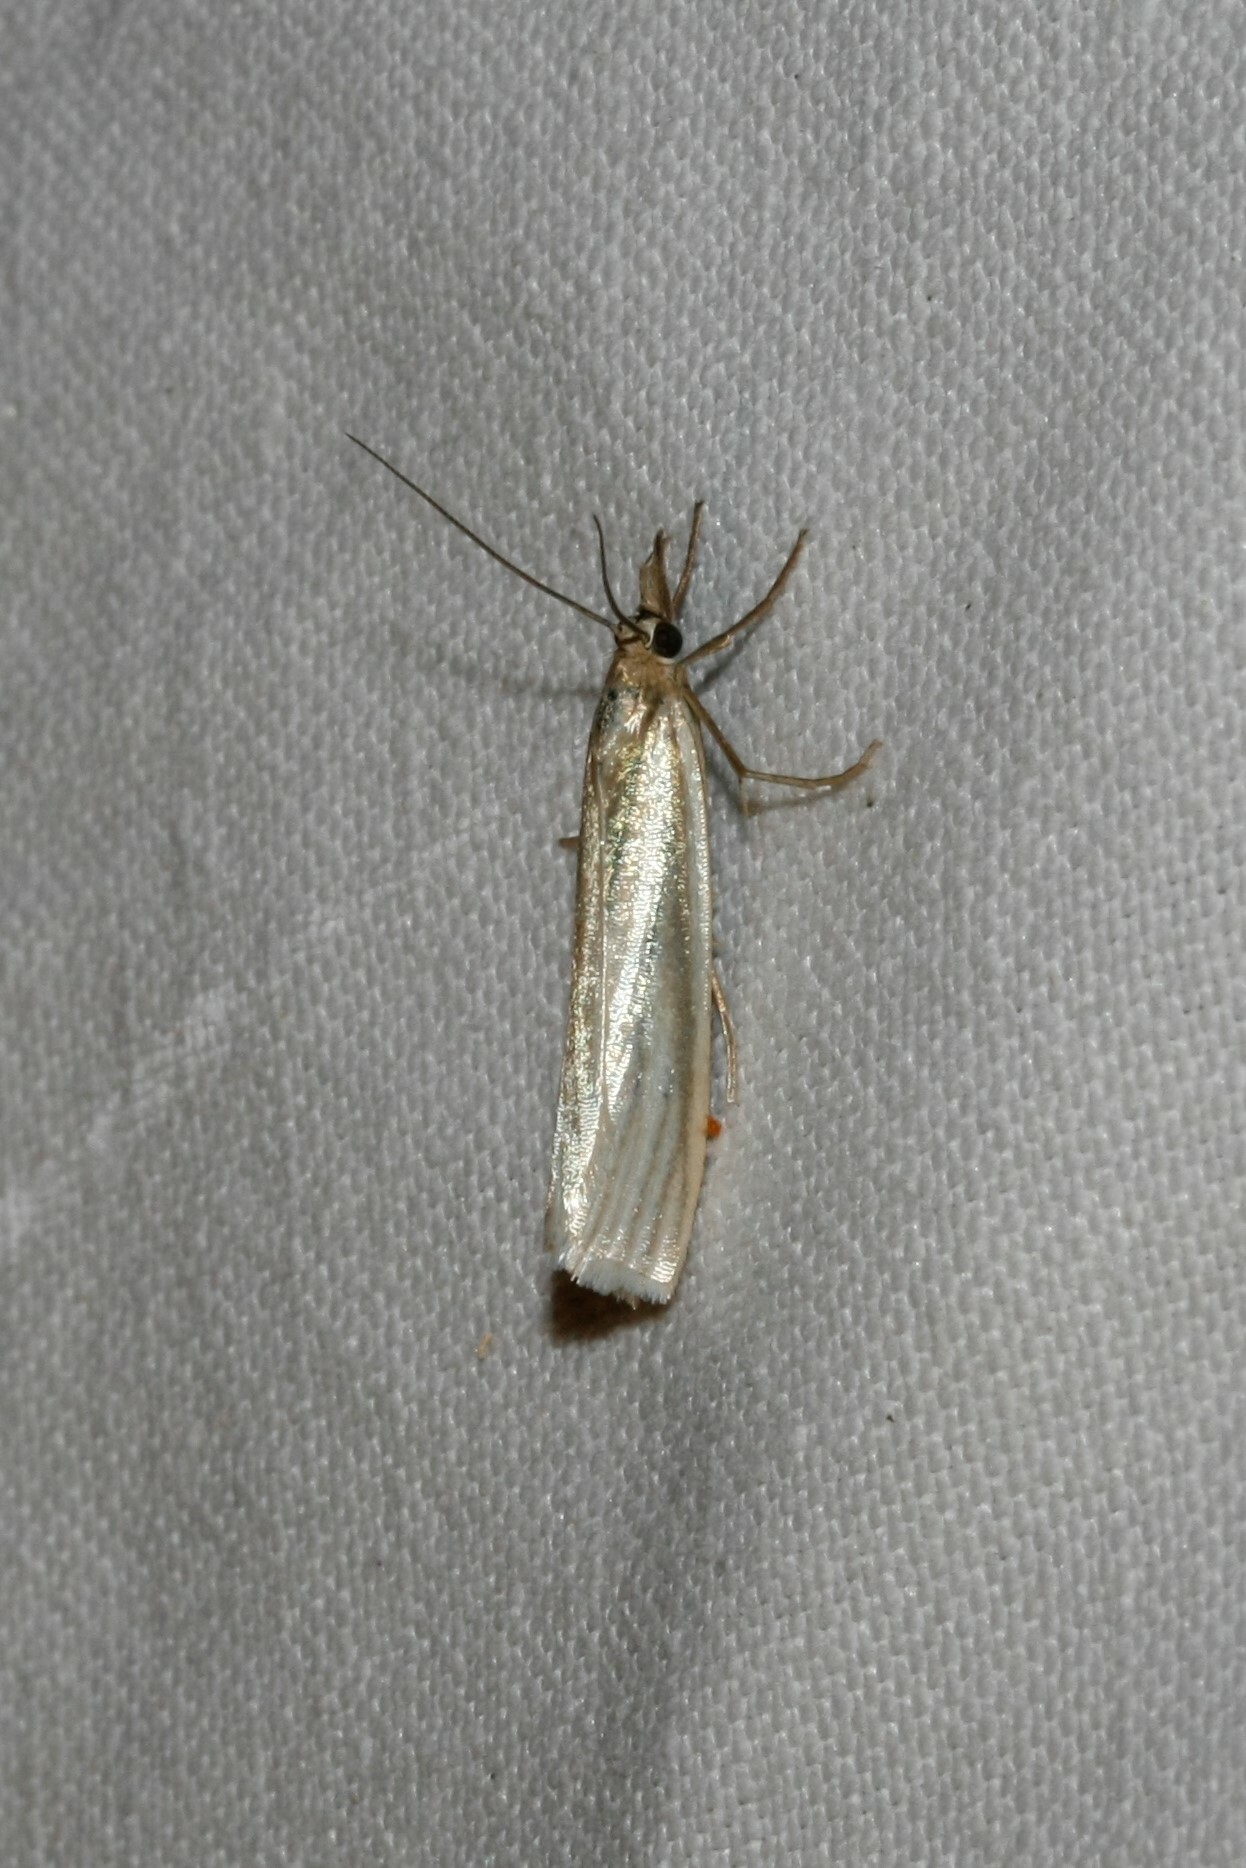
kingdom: Animalia
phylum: Arthropoda
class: Insecta
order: Lepidoptera
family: Crambidae
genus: Crambus
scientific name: Crambus perlellus
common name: Yellow satin veneer
